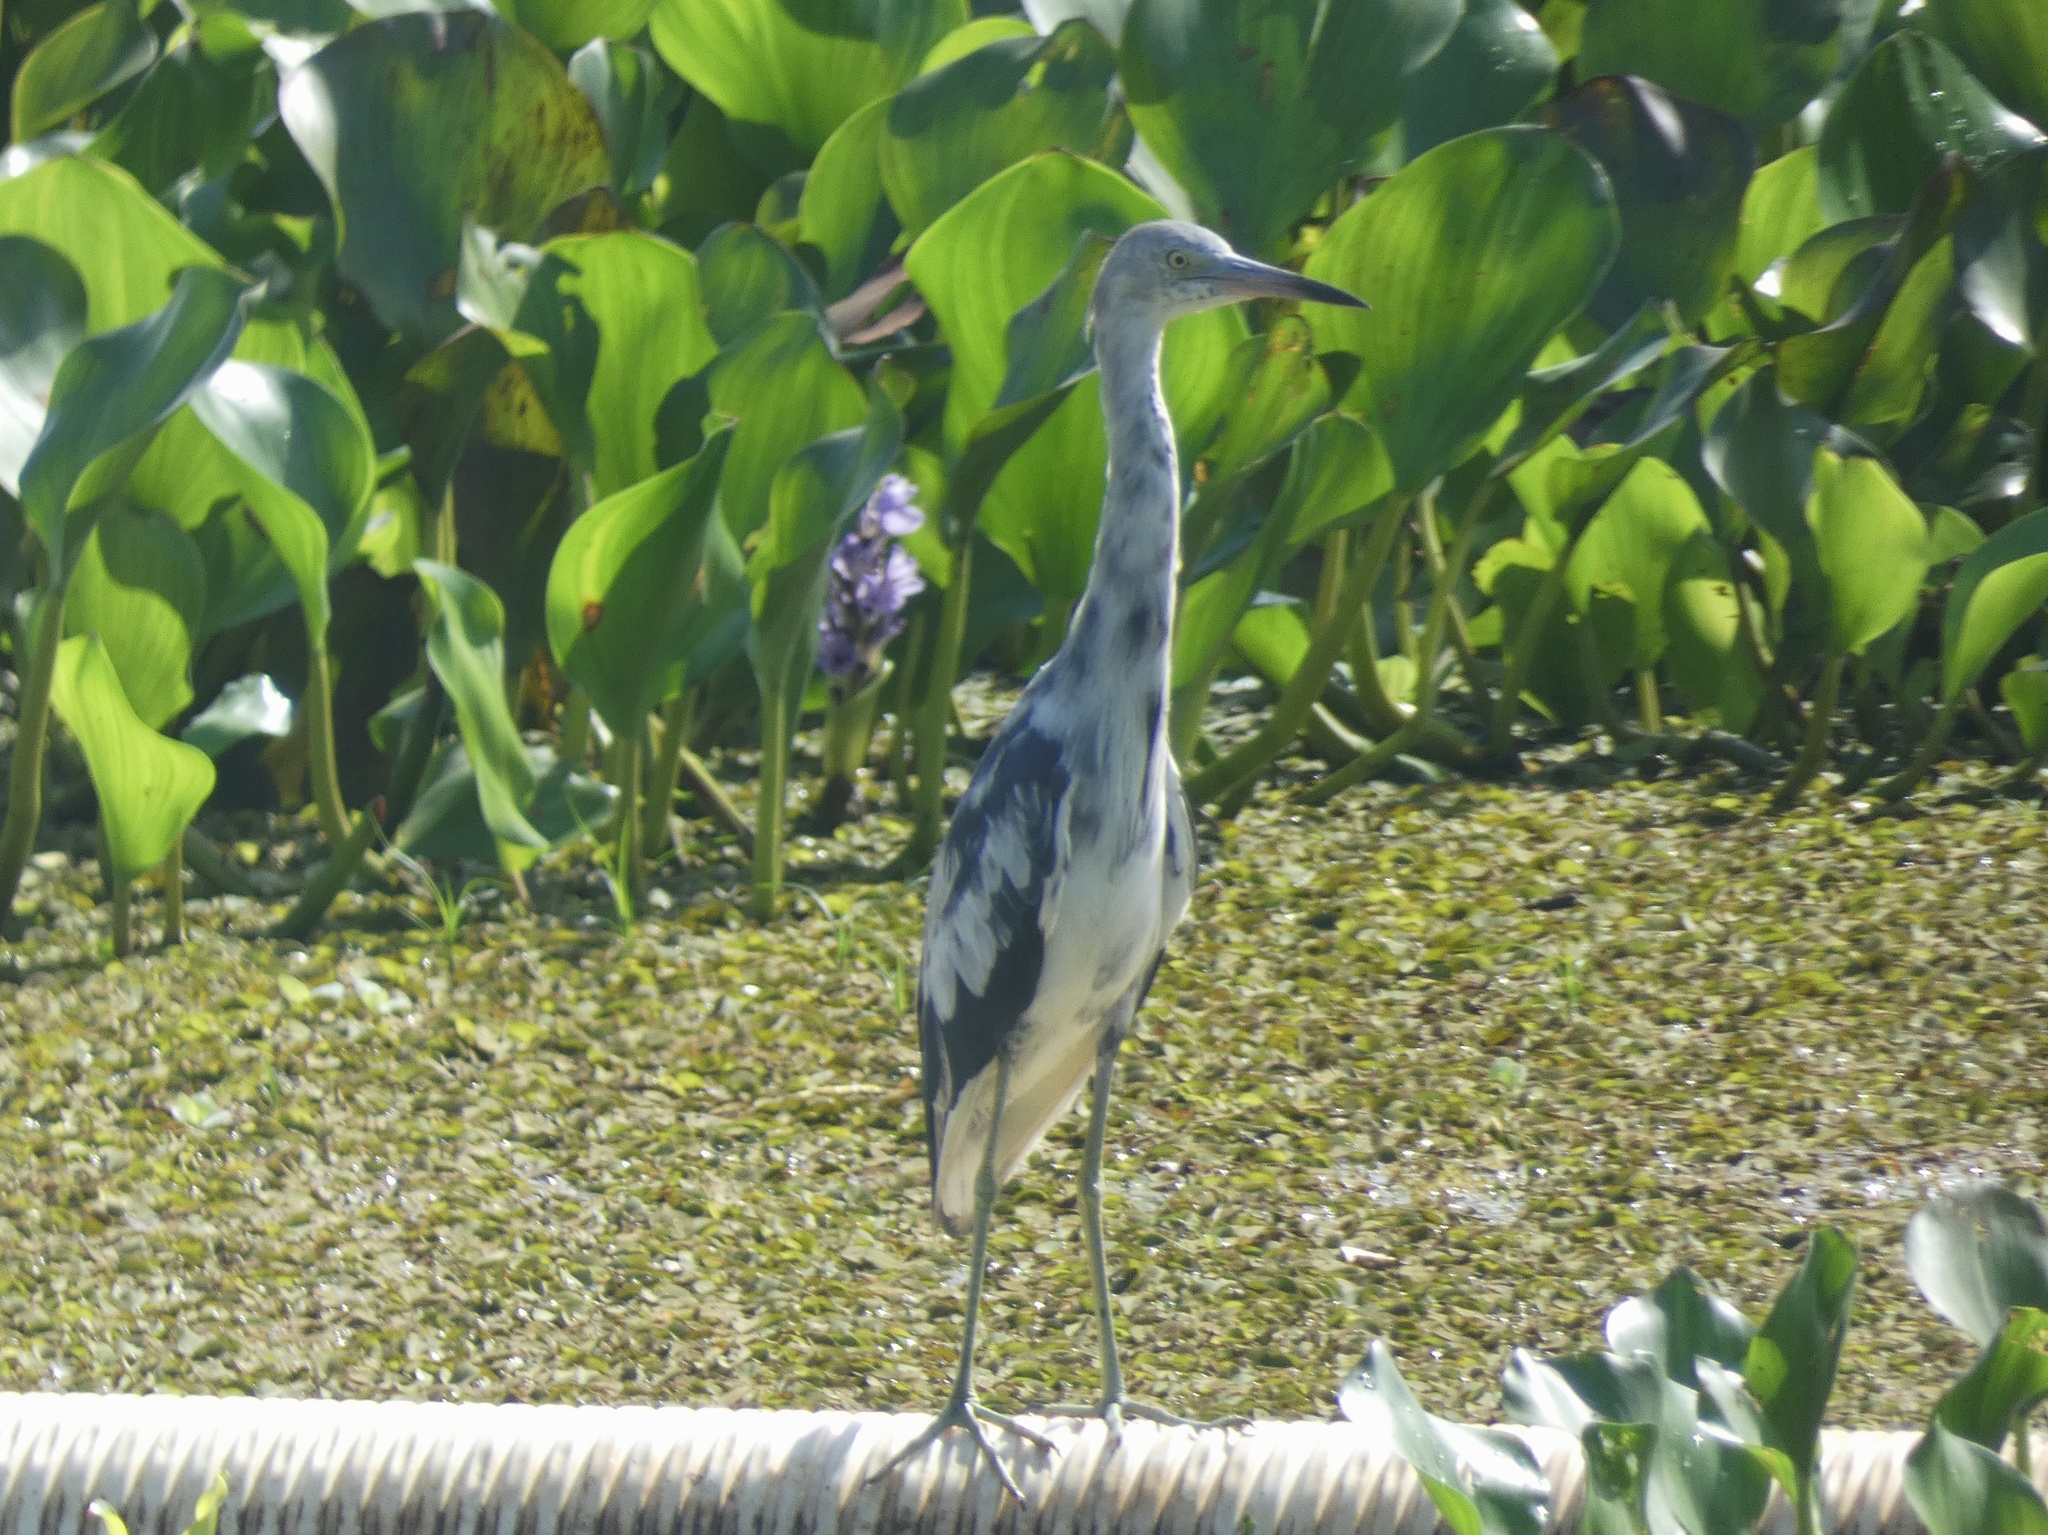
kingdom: Animalia
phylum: Chordata
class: Aves
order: Pelecaniformes
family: Ardeidae
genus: Egretta
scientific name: Egretta caerulea
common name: Little blue heron
